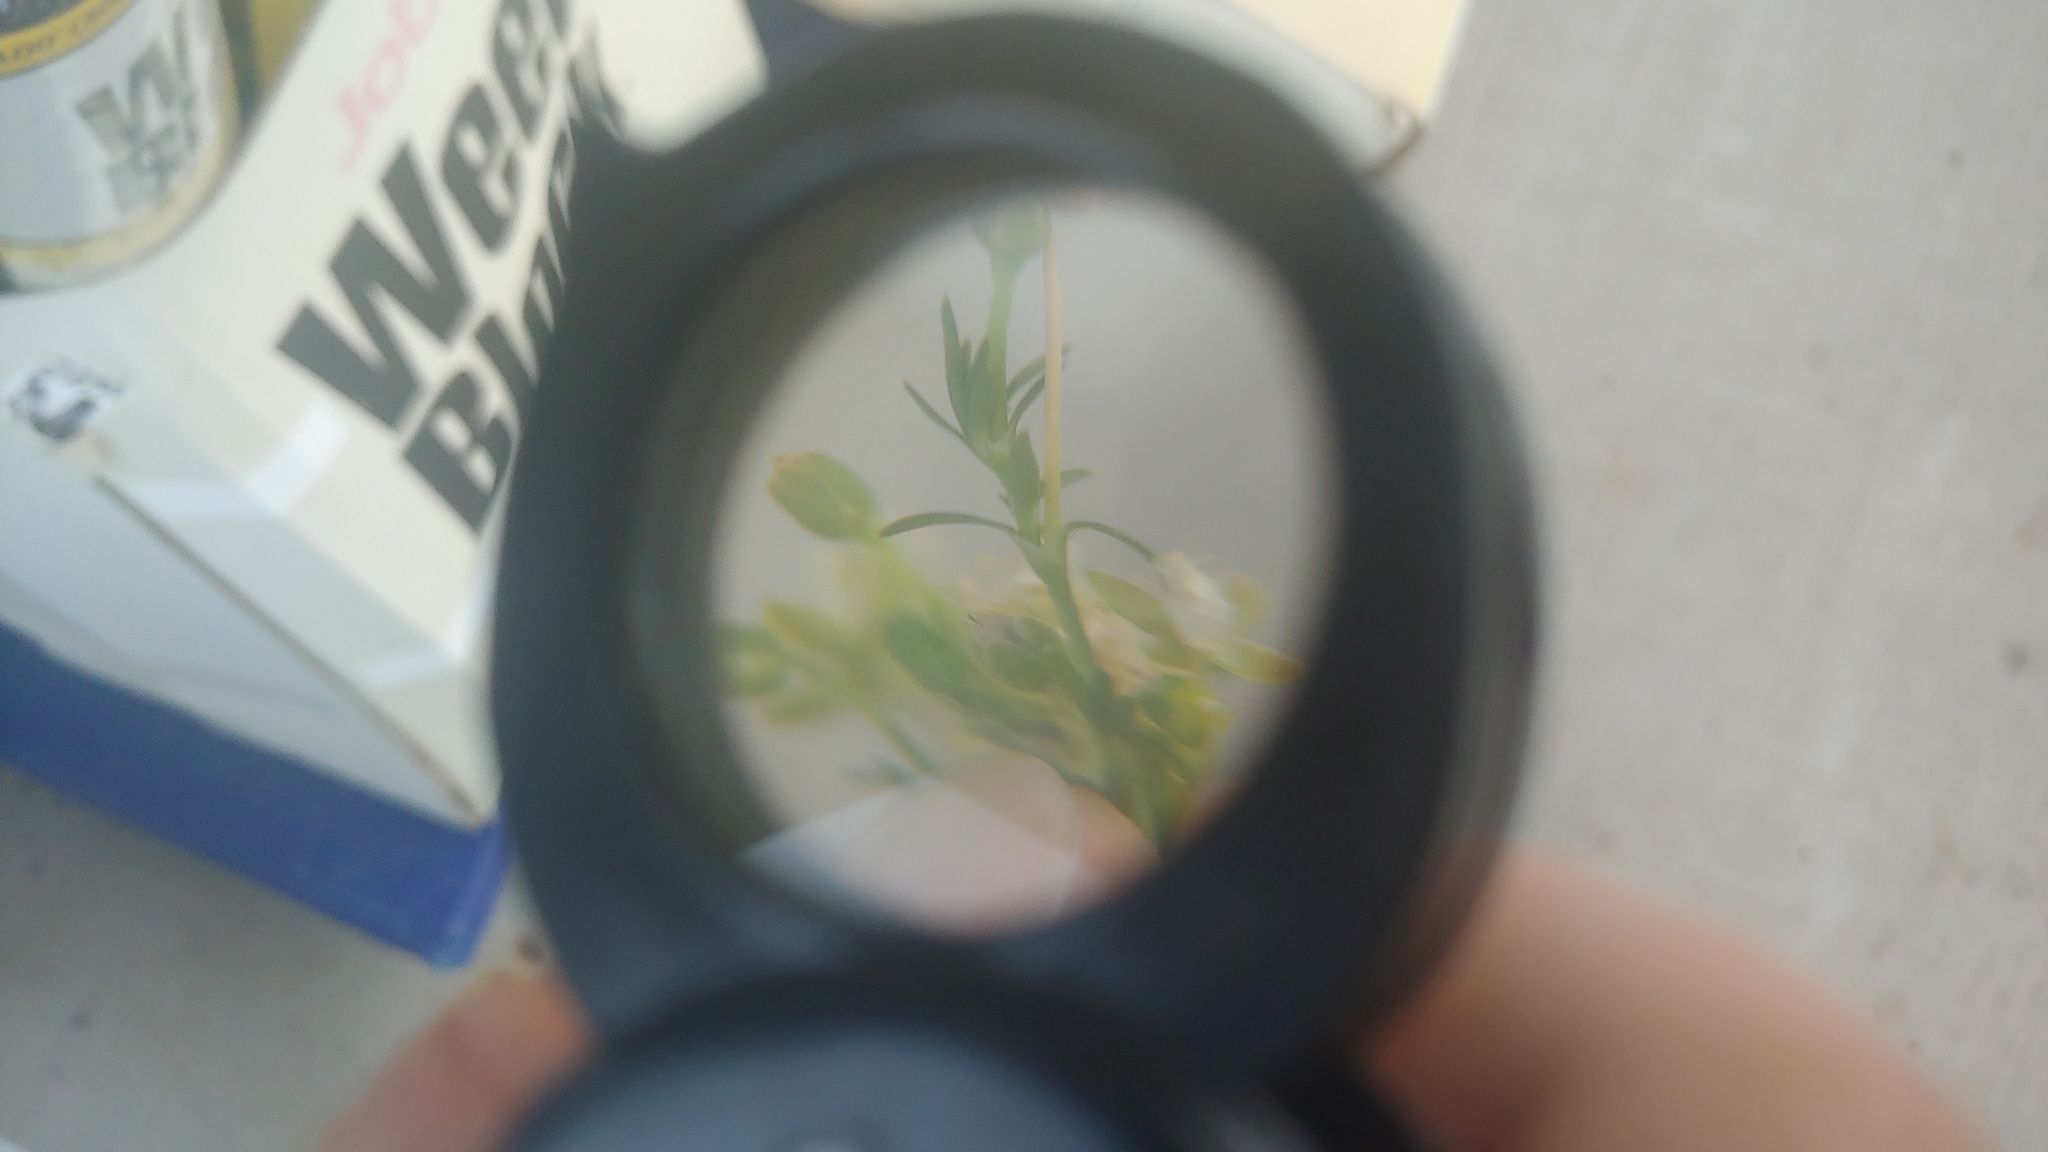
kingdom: Plantae
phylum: Tracheophyta
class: Magnoliopsida
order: Caryophyllales
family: Caryophyllaceae
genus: Sagina
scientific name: Sagina procumbens
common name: Procumbent pearlwort
